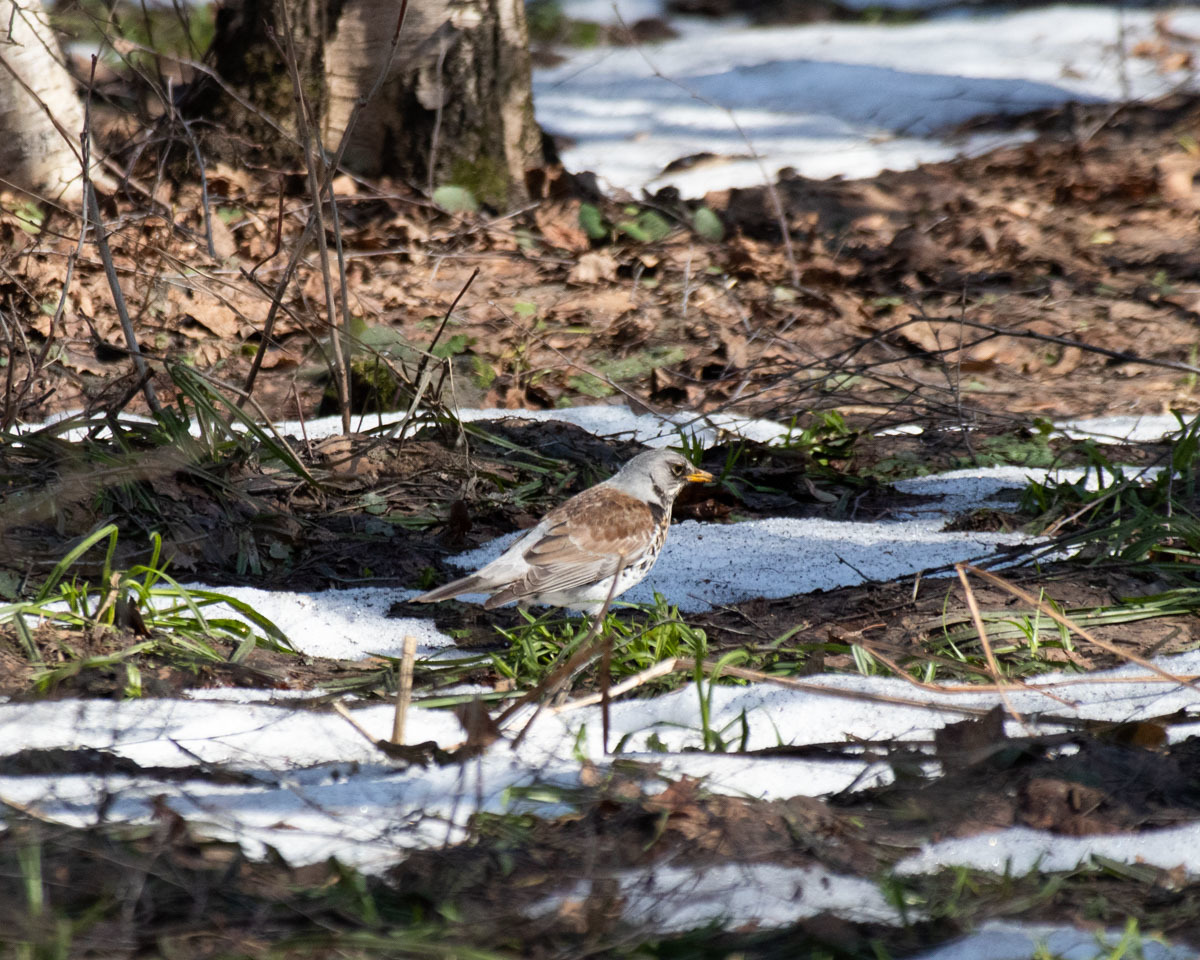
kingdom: Animalia
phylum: Chordata
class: Aves
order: Passeriformes
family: Turdidae
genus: Turdus
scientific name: Turdus pilaris
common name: Fieldfare
